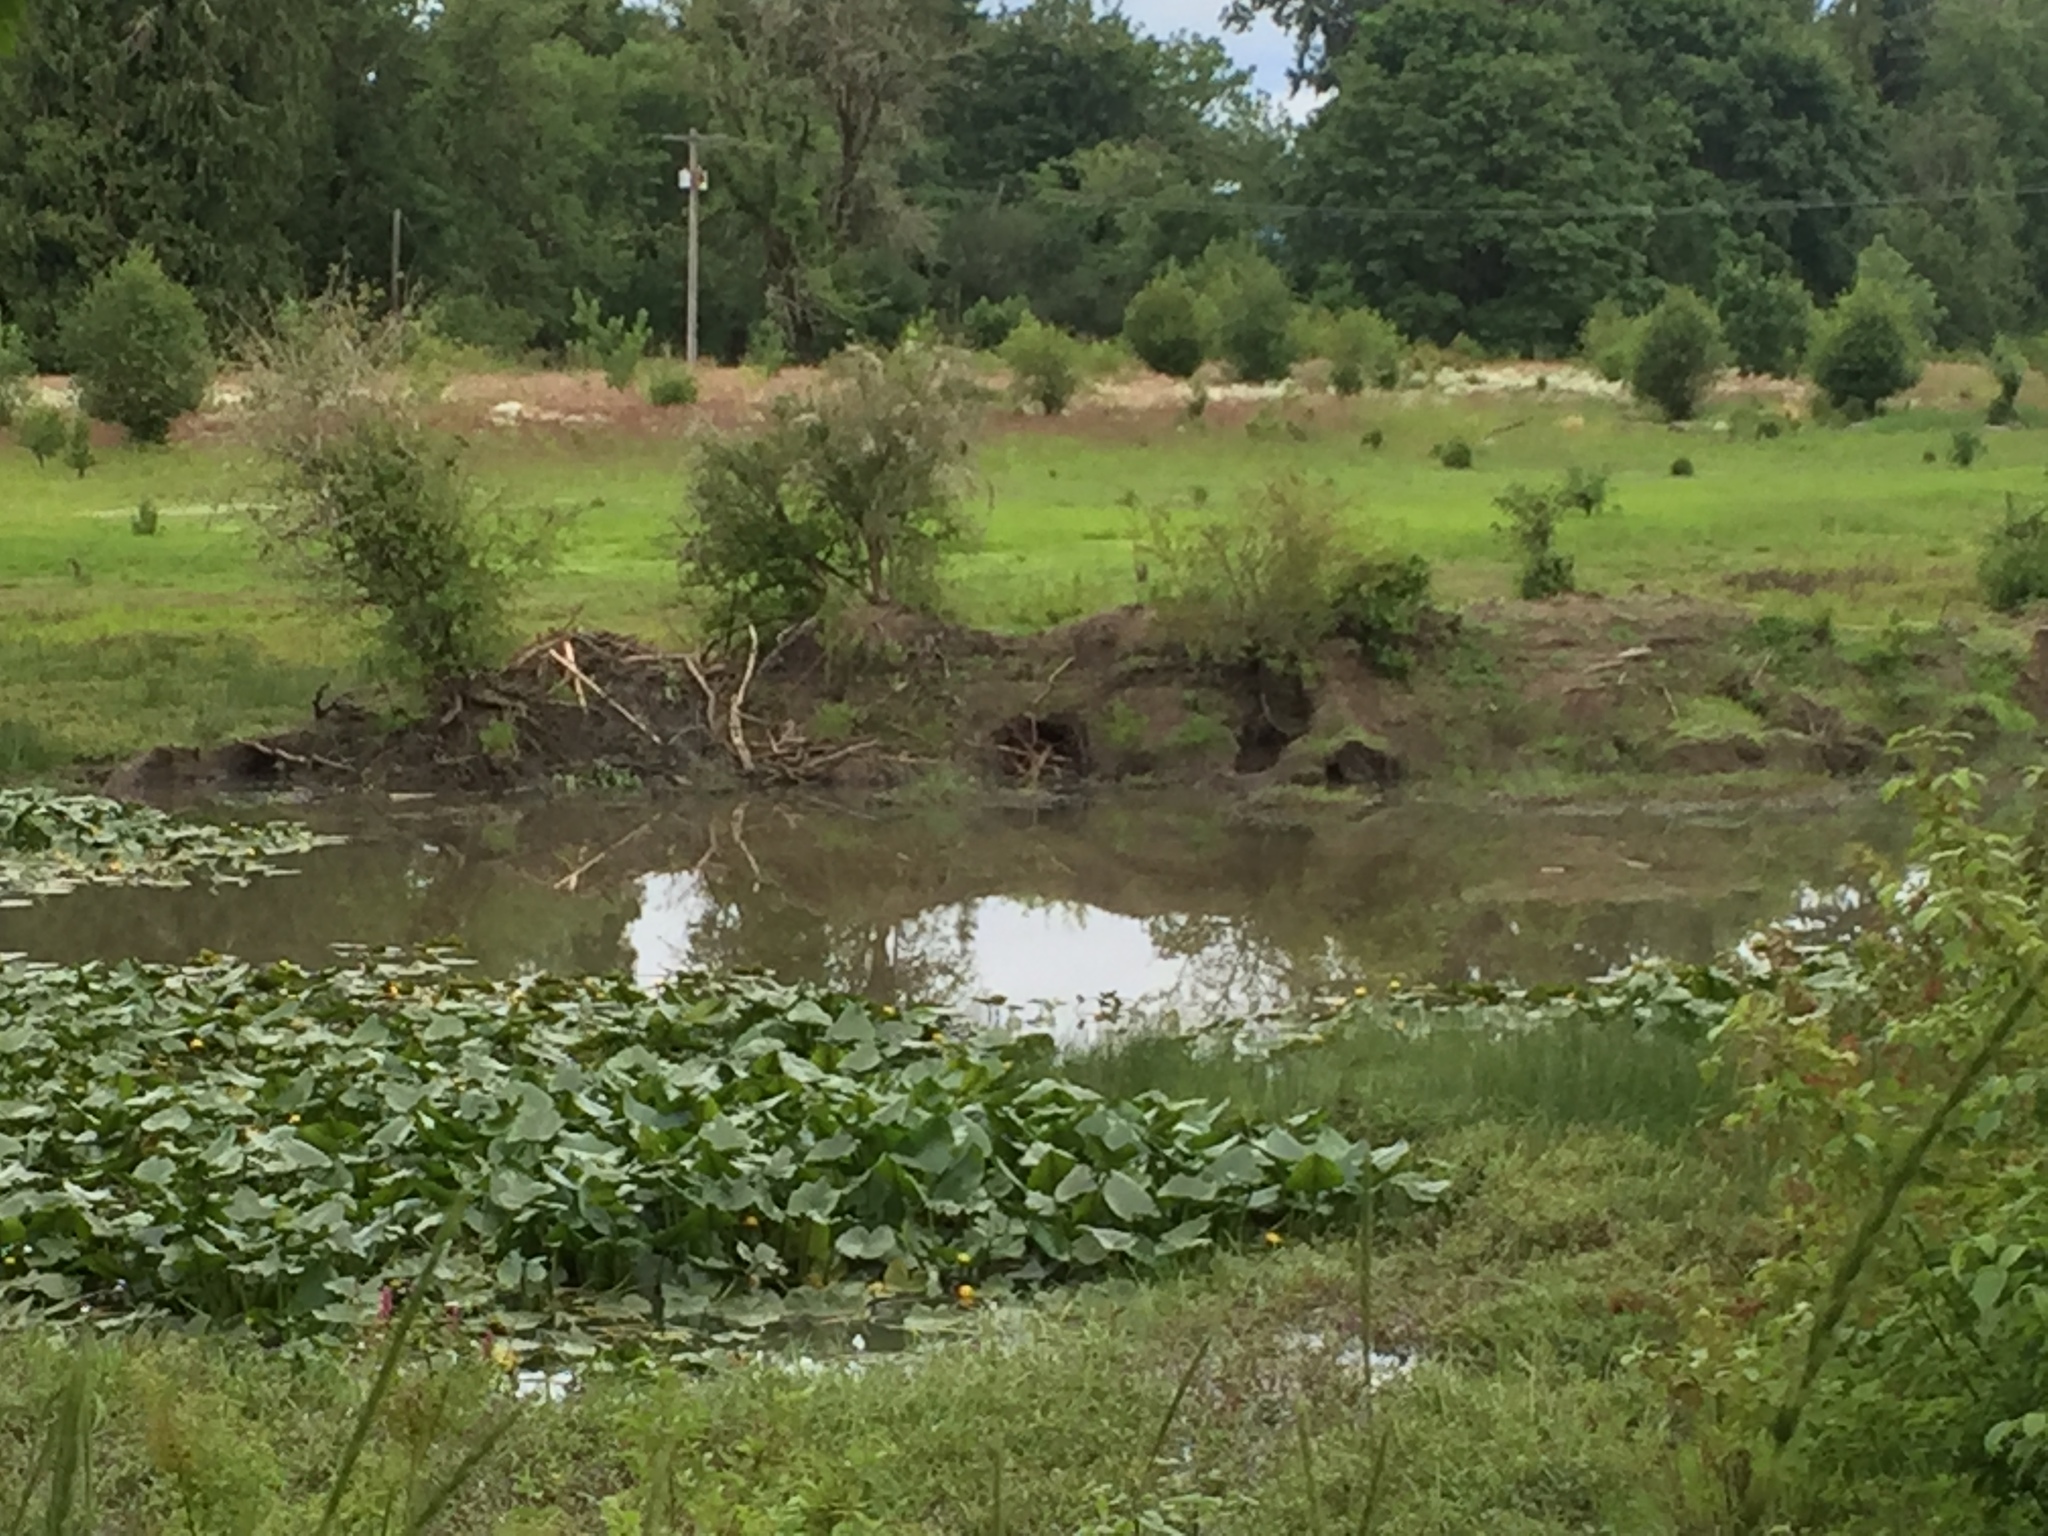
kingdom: Animalia
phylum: Chordata
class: Mammalia
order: Rodentia
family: Castoridae
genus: Castor
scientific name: Castor canadensis
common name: American beaver
